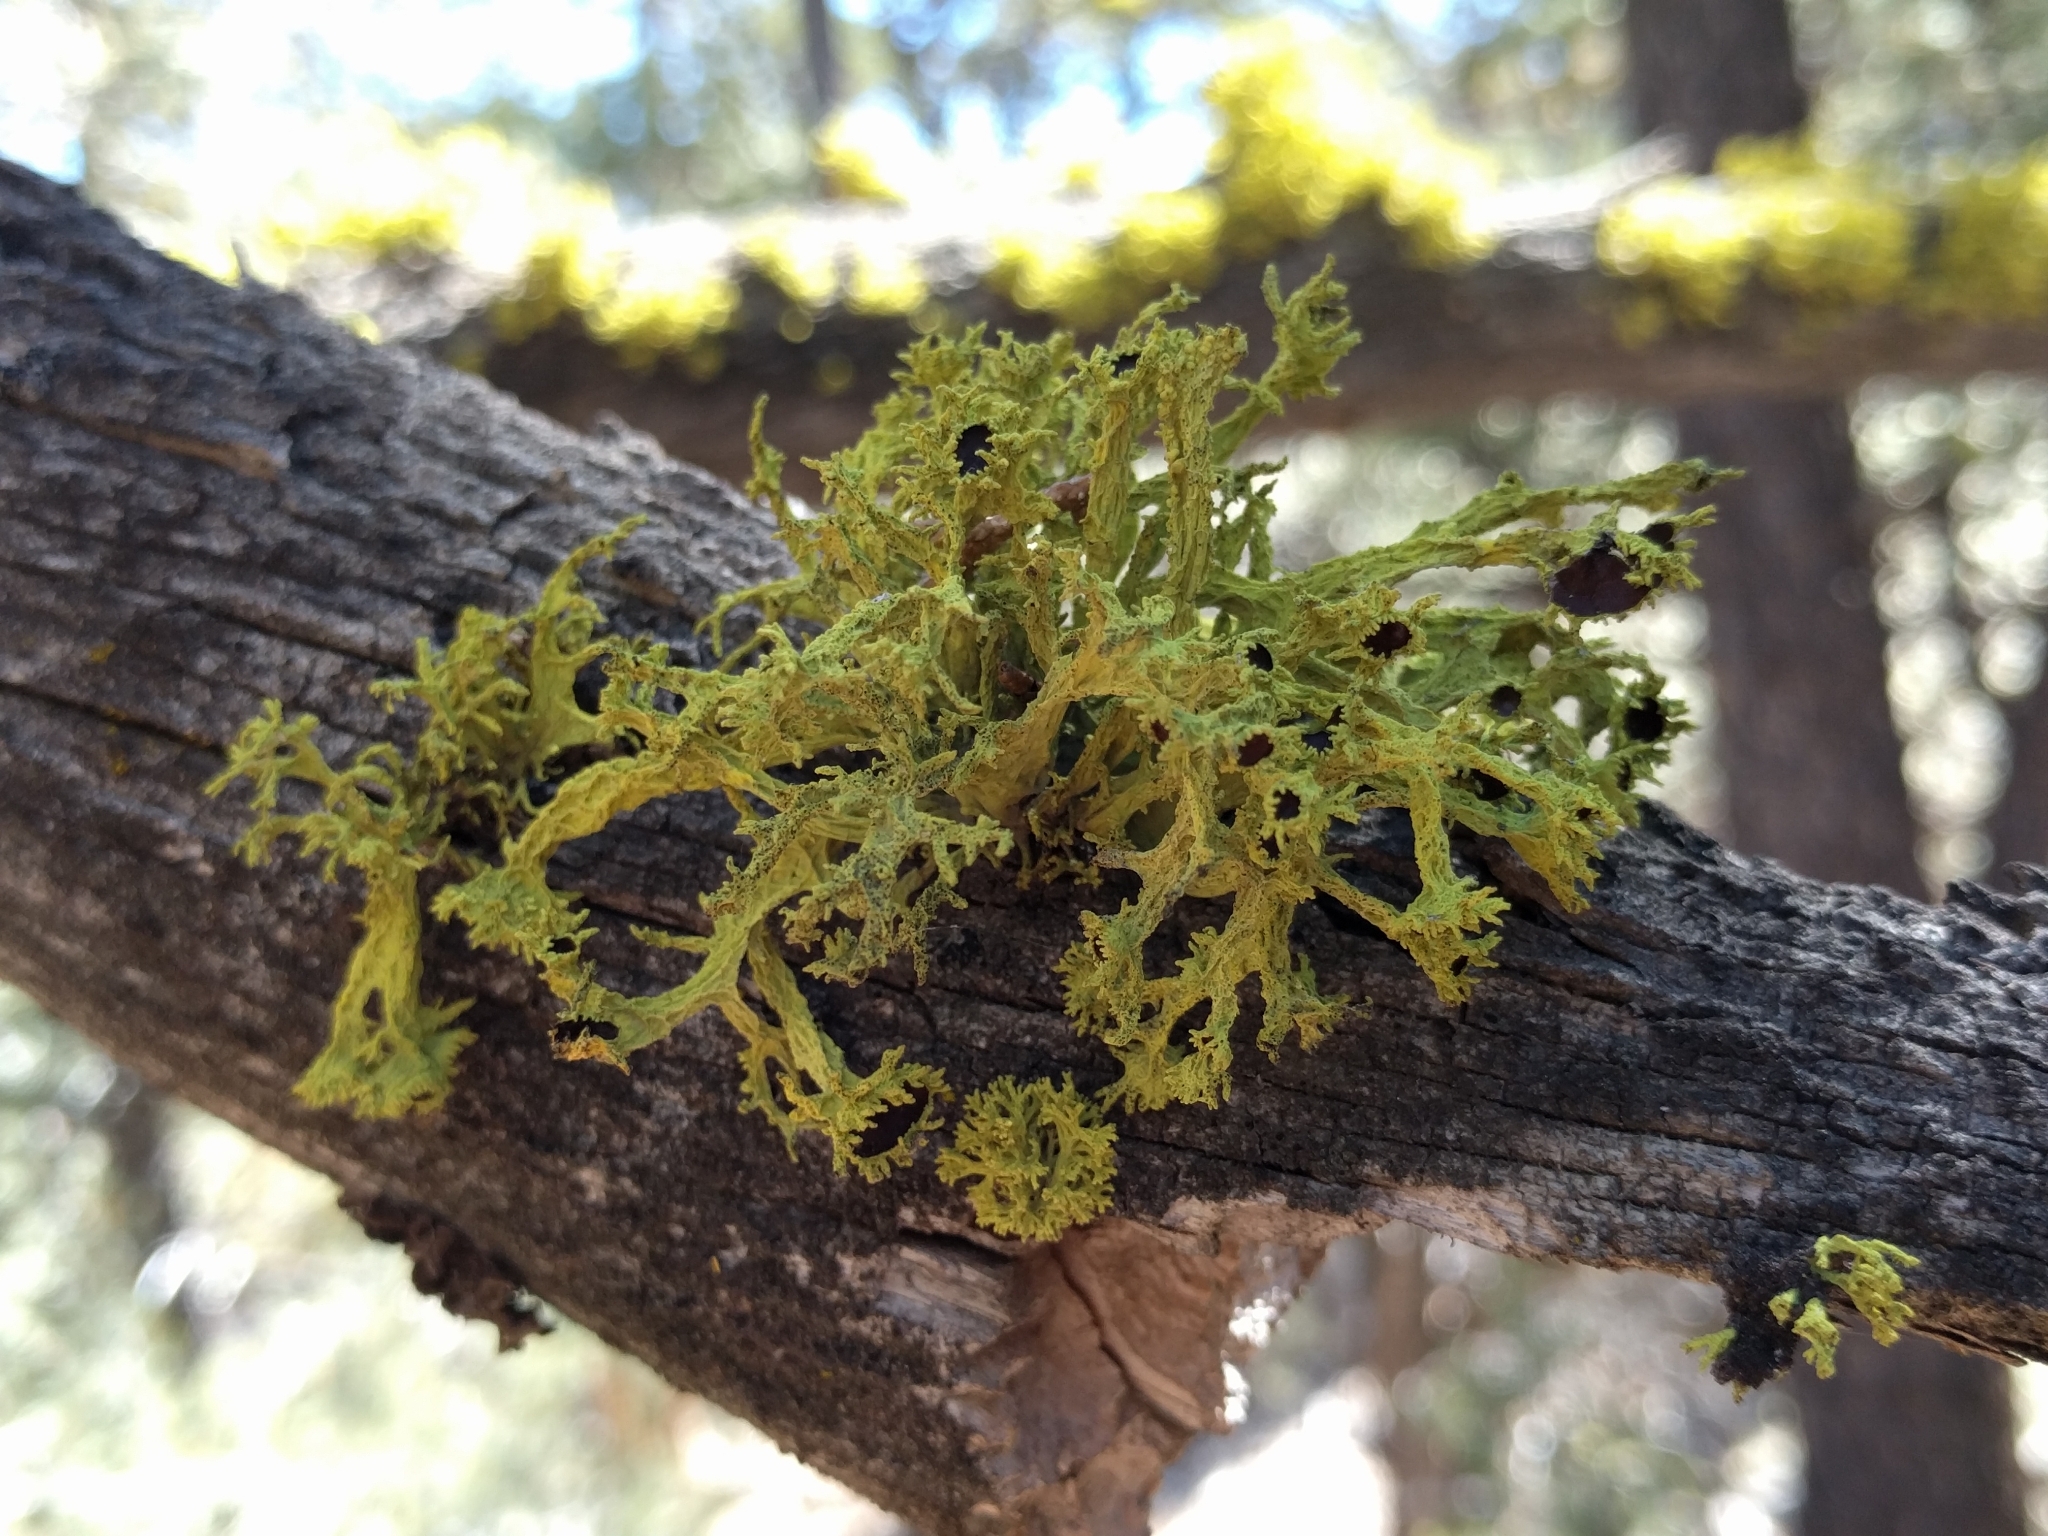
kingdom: Fungi
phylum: Ascomycota
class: Lecanoromycetes
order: Lecanorales
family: Parmeliaceae
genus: Letharia
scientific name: Letharia columbiana
